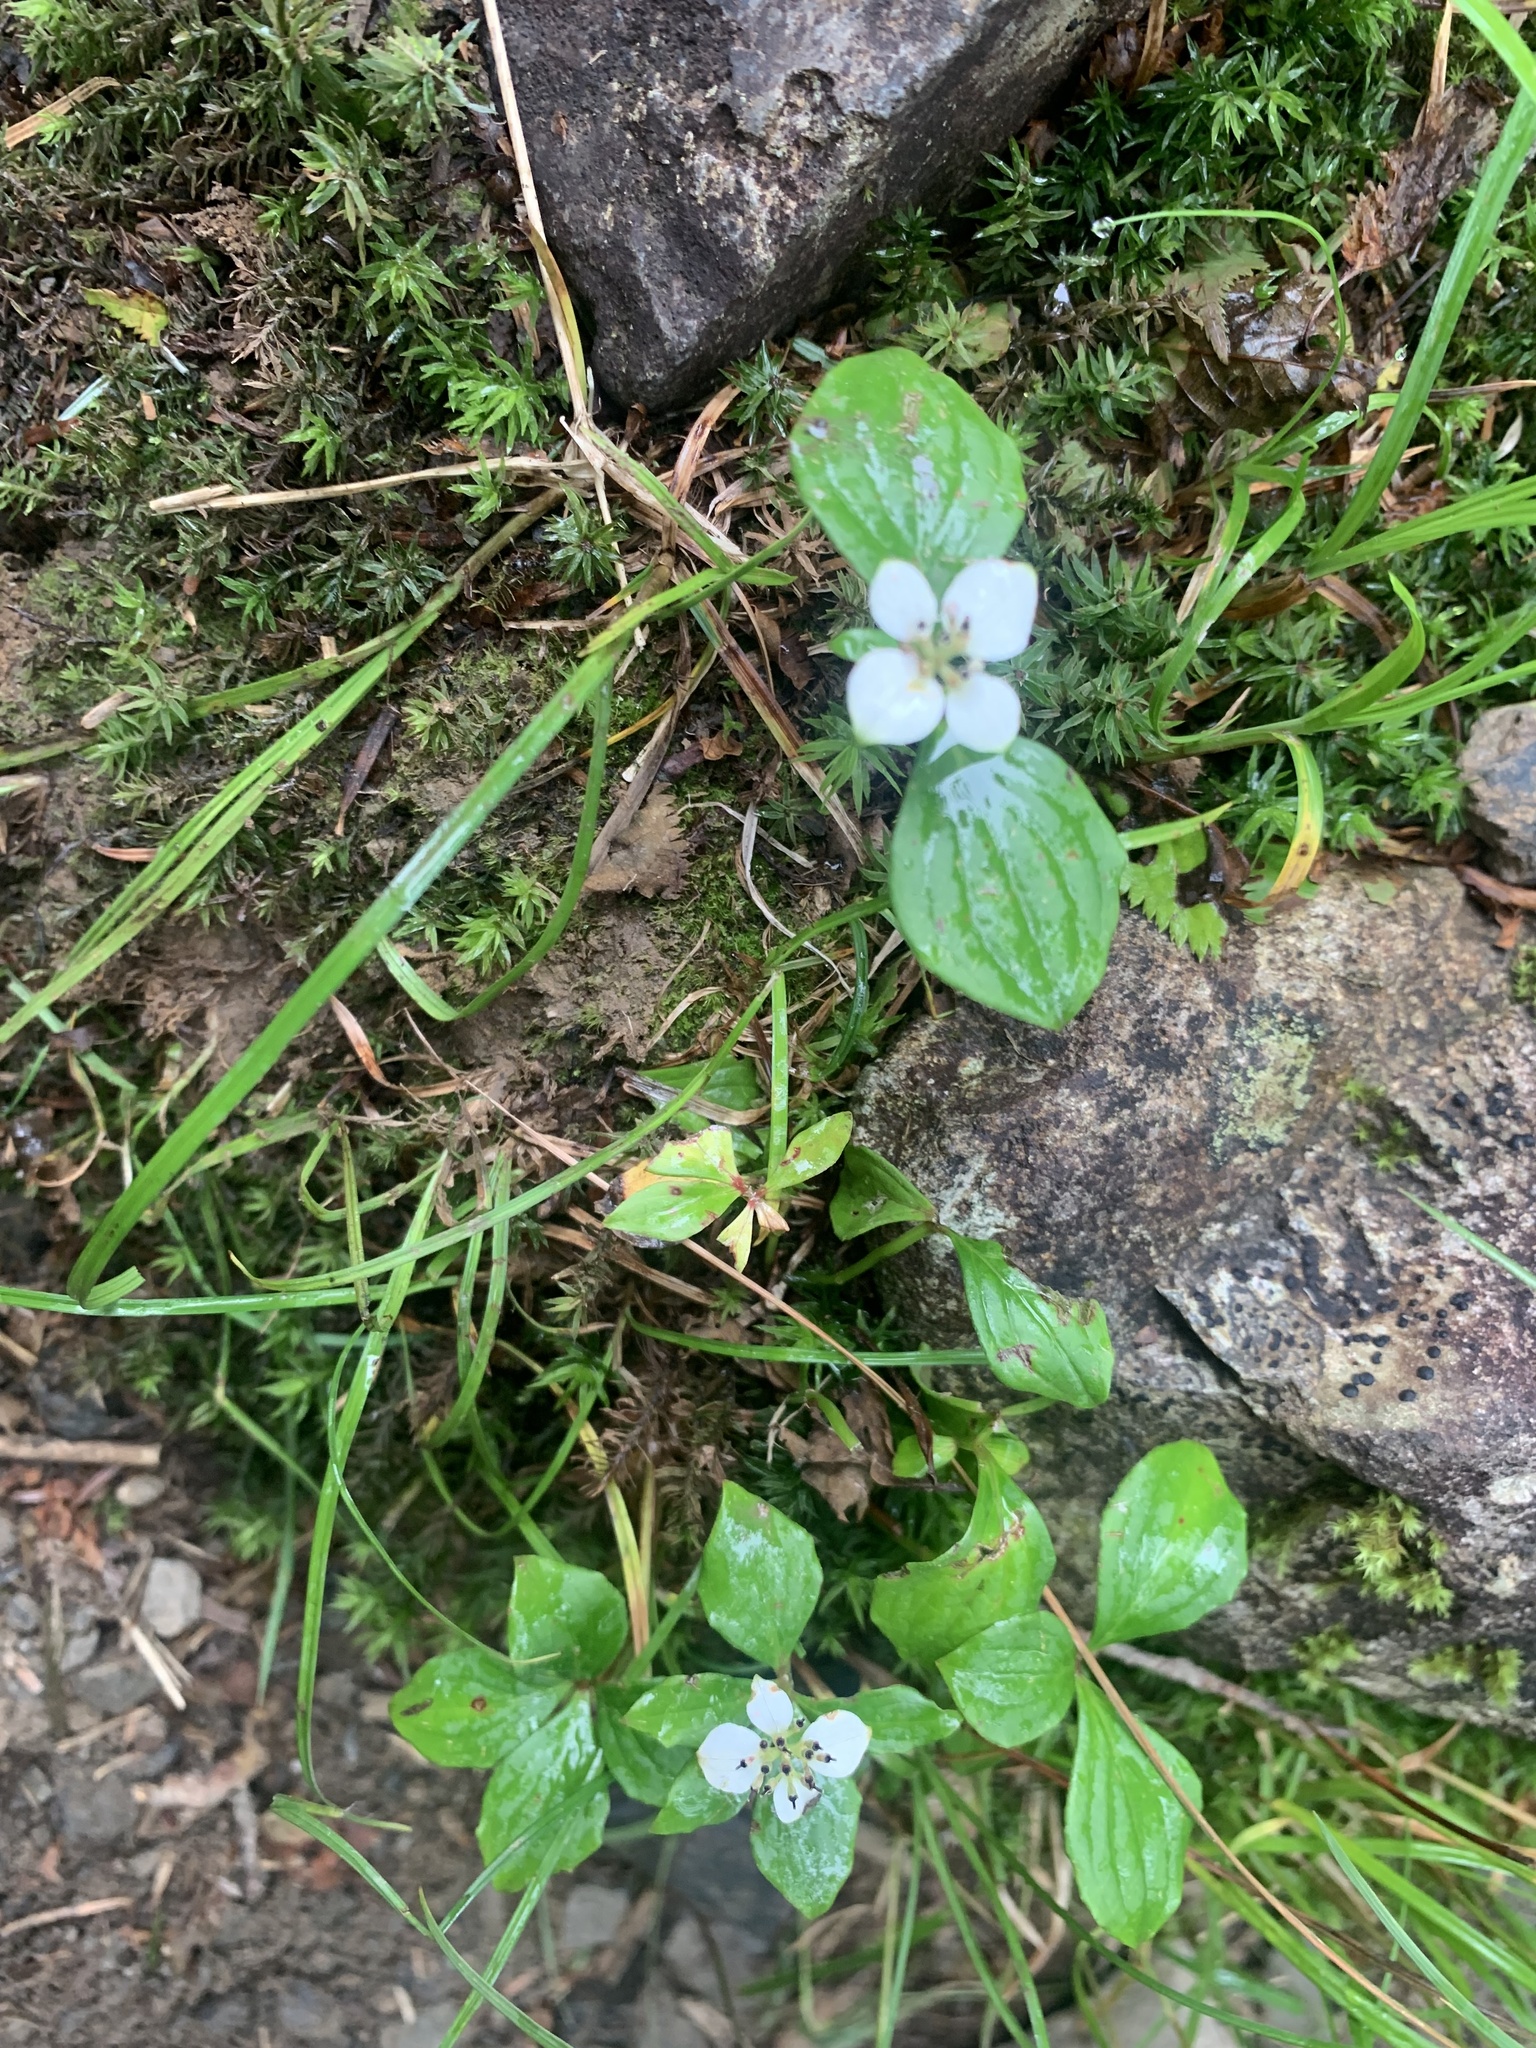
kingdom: Plantae
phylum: Tracheophyta
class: Magnoliopsida
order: Cornales
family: Cornaceae
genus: Cornus
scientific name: Cornus canadensis
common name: Creeping dogwood
